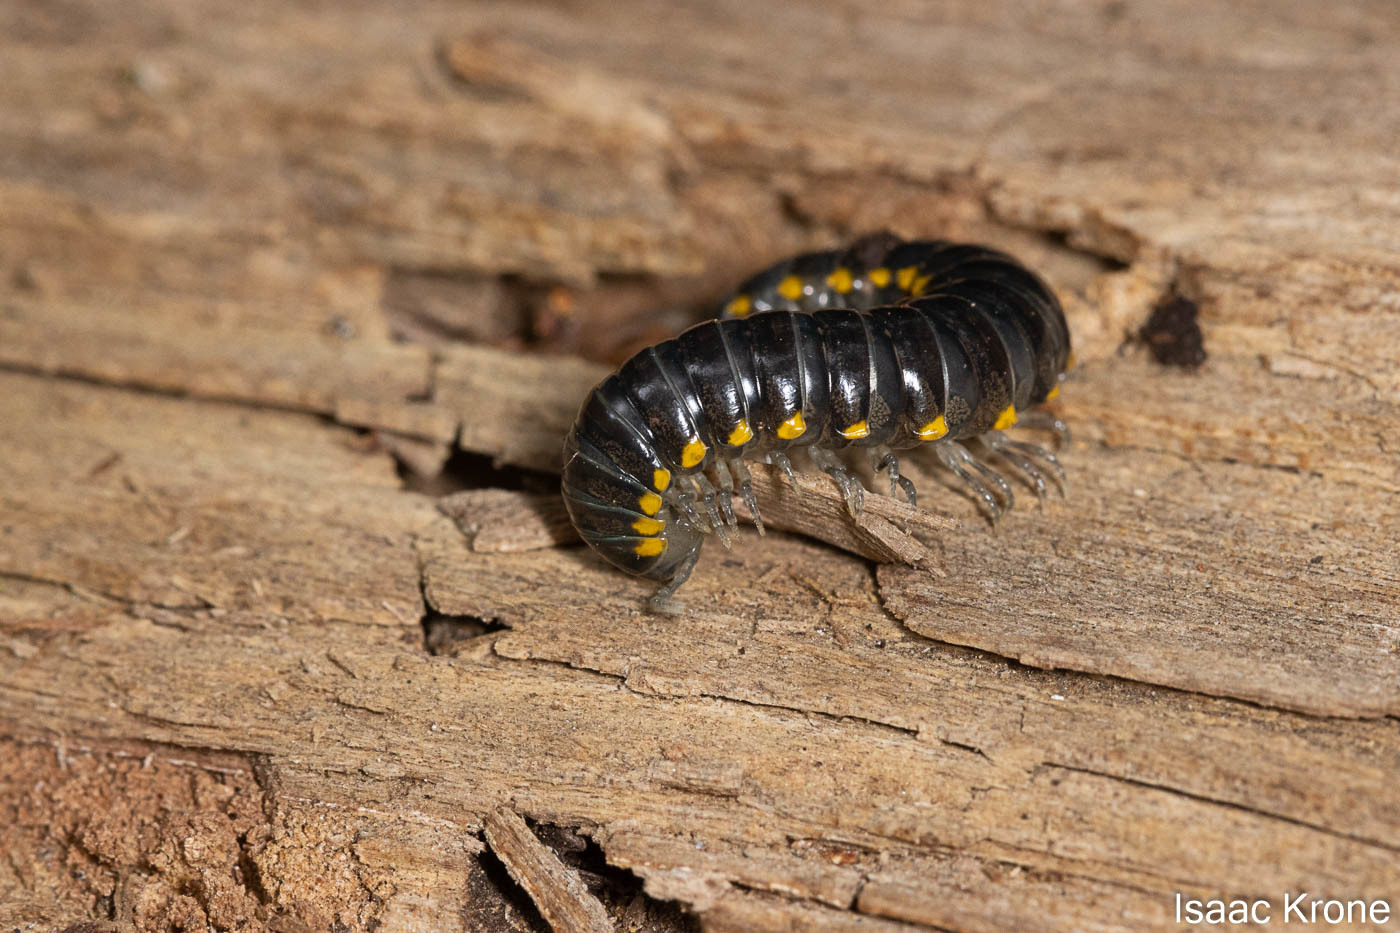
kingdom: Animalia
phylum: Arthropoda
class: Diplopoda
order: Polydesmida
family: Xystodesmidae
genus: Harpaphe
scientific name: Harpaphe haydeniana
